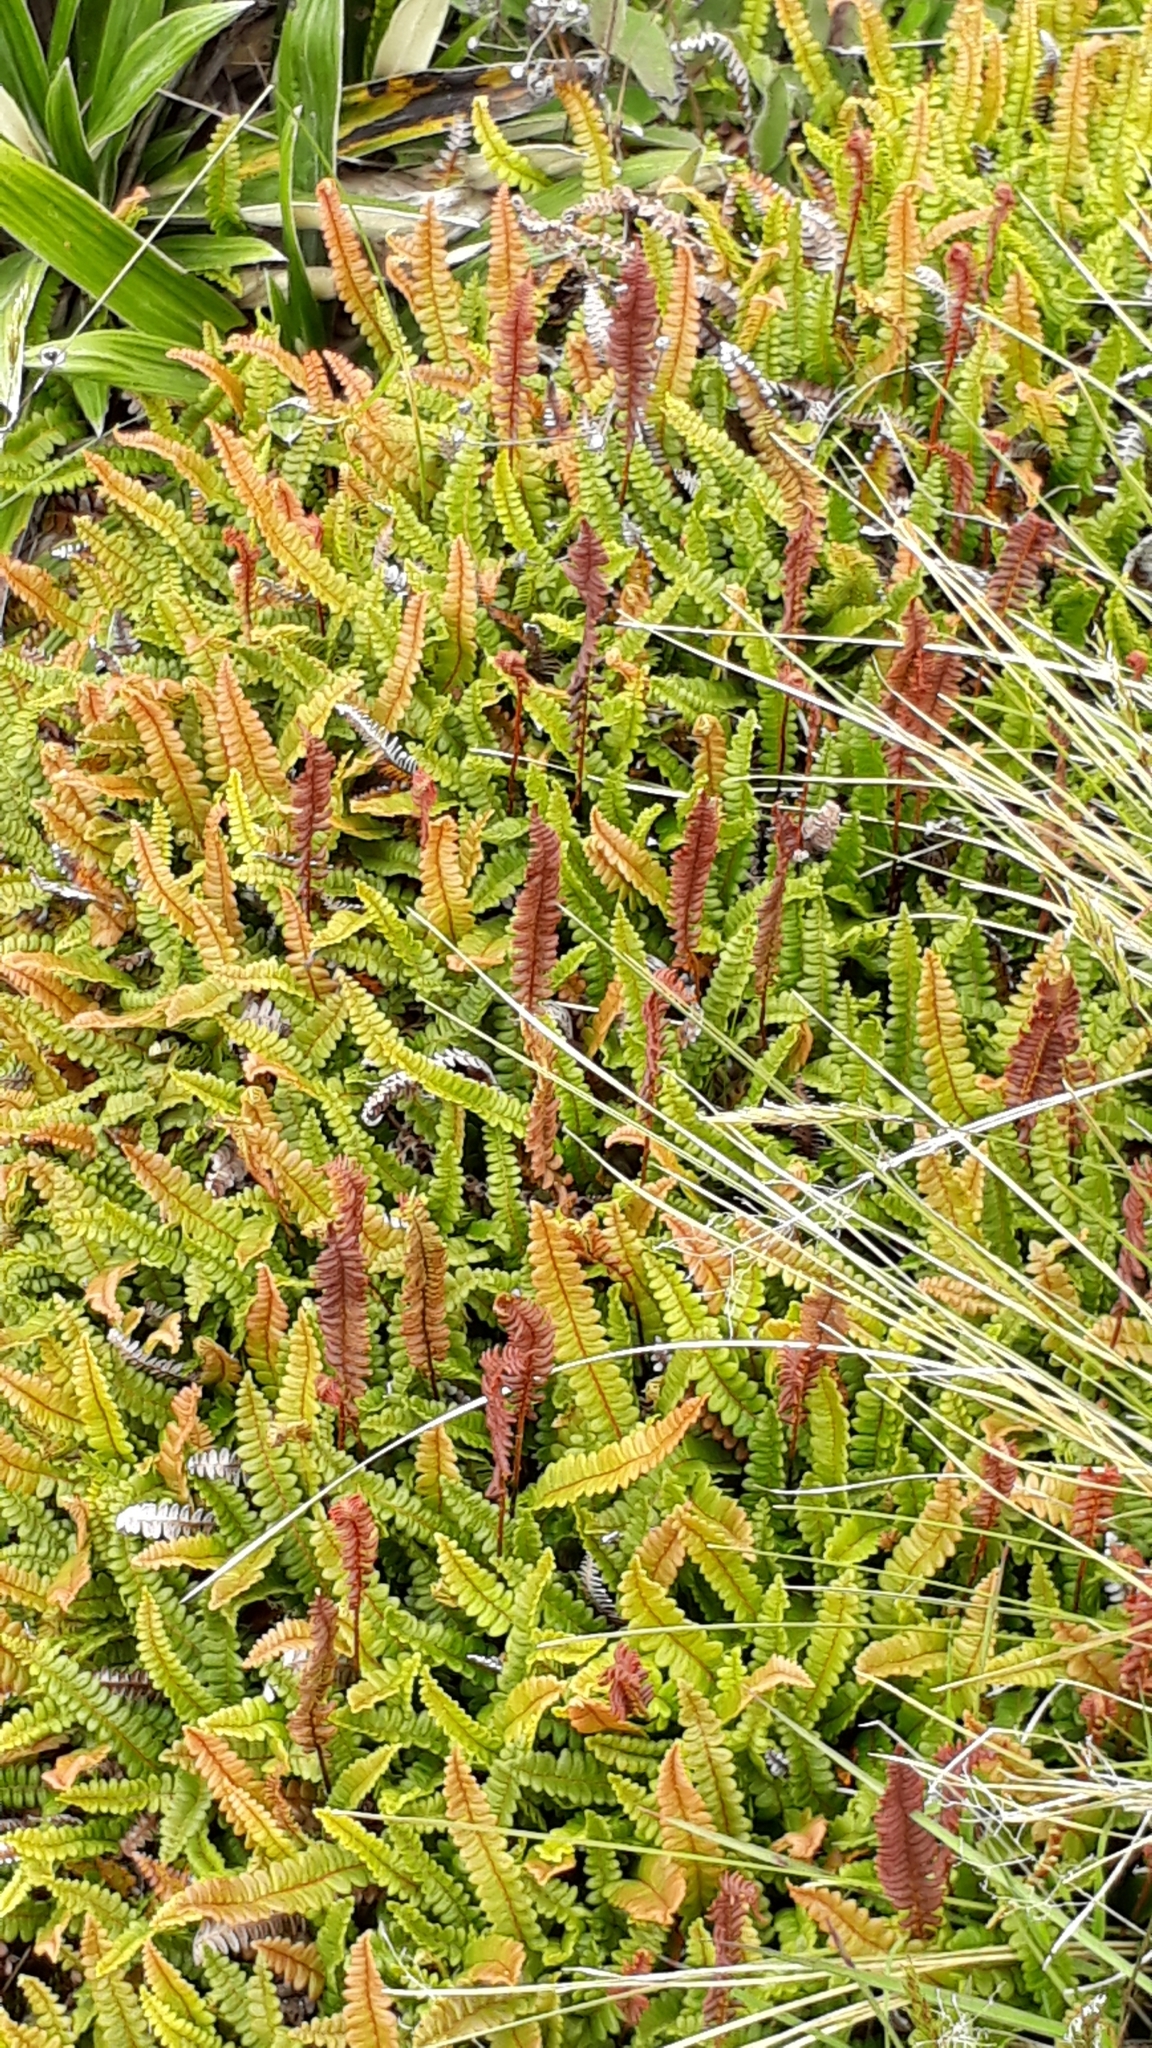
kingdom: Plantae
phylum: Tracheophyta
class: Polypodiopsida
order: Polypodiales
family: Blechnaceae
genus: Austroblechnum
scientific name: Austroblechnum penna-marina
